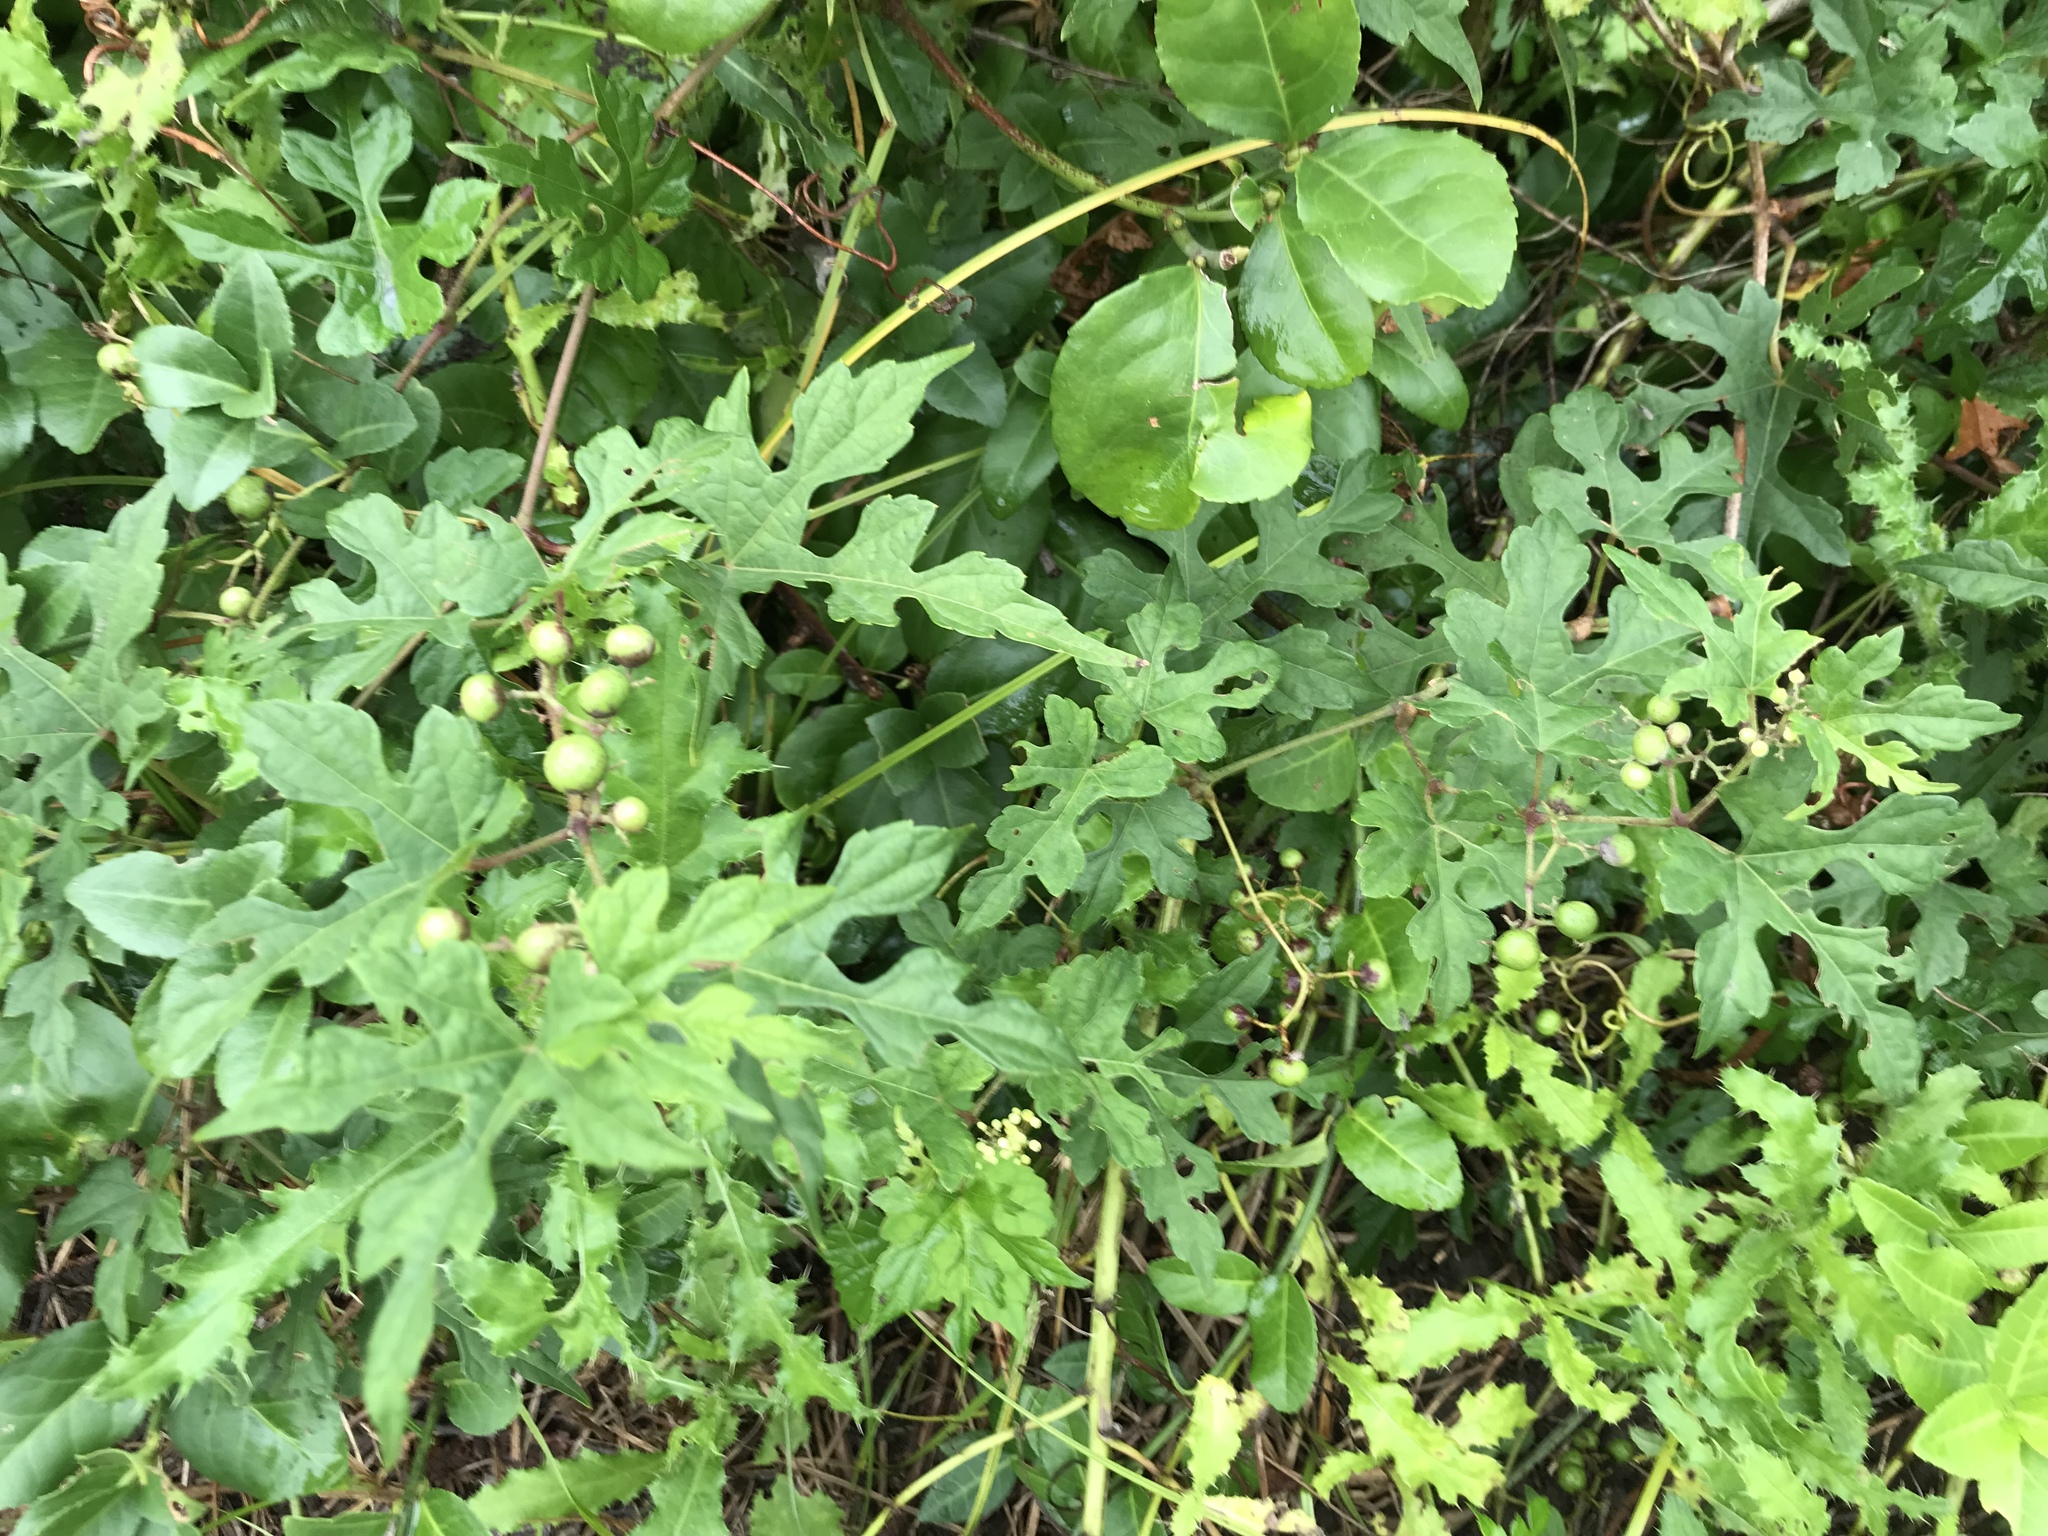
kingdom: Plantae
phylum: Tracheophyta
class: Magnoliopsida
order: Vitales
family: Vitaceae
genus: Ampelopsis
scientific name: Ampelopsis glandulosa
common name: Amur peppervine
